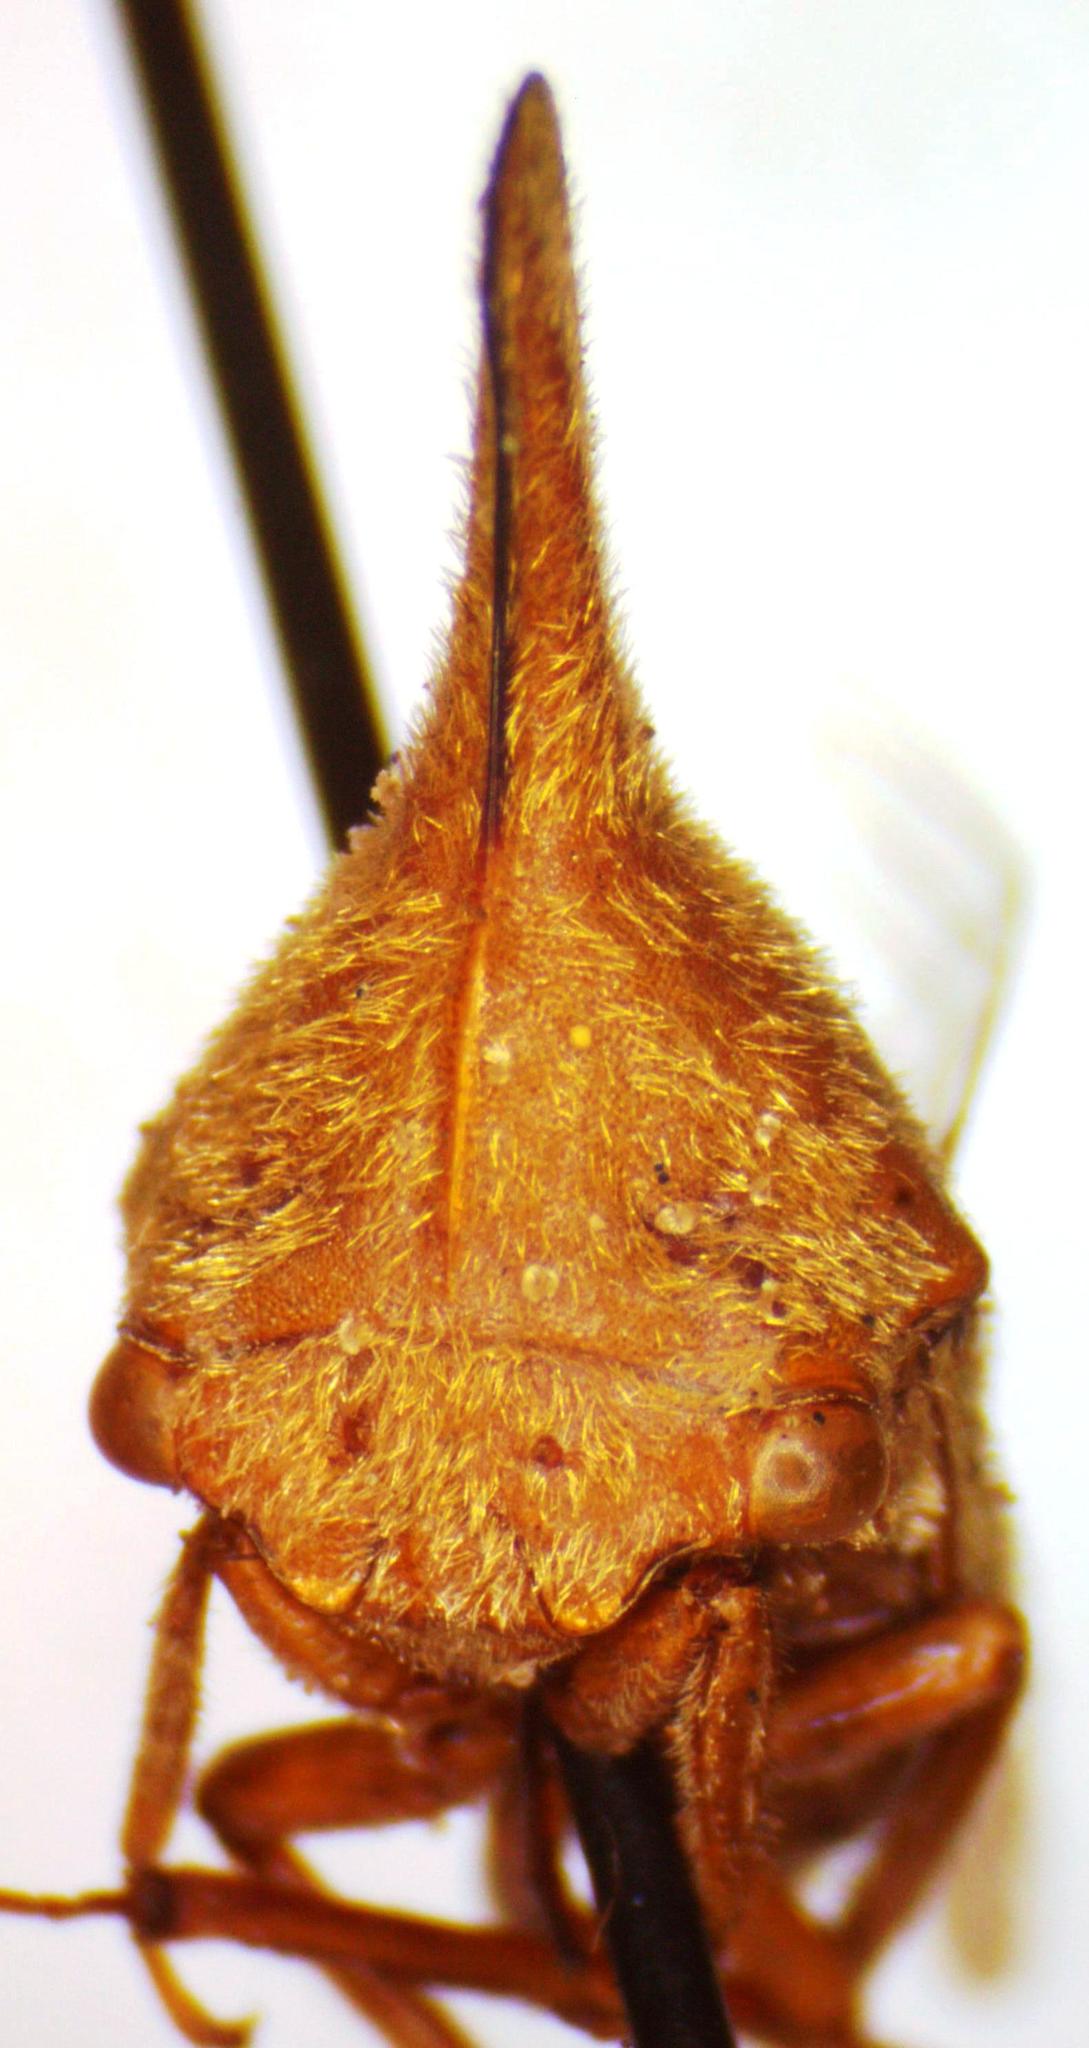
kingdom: Animalia
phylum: Arthropoda
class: Insecta
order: Hemiptera
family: Membracidae
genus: Aconophora
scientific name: Aconophora laminata
